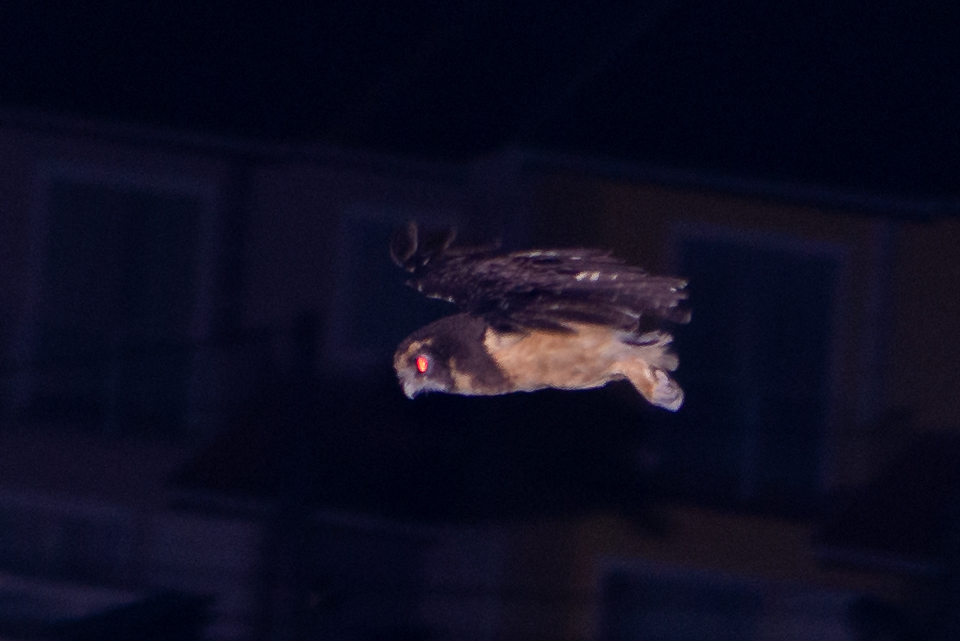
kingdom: Animalia
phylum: Chordata
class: Aves
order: Strigiformes
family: Strigidae
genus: Pulsatrix
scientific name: Pulsatrix koeniswaldiana
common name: Tawny-browed owl
